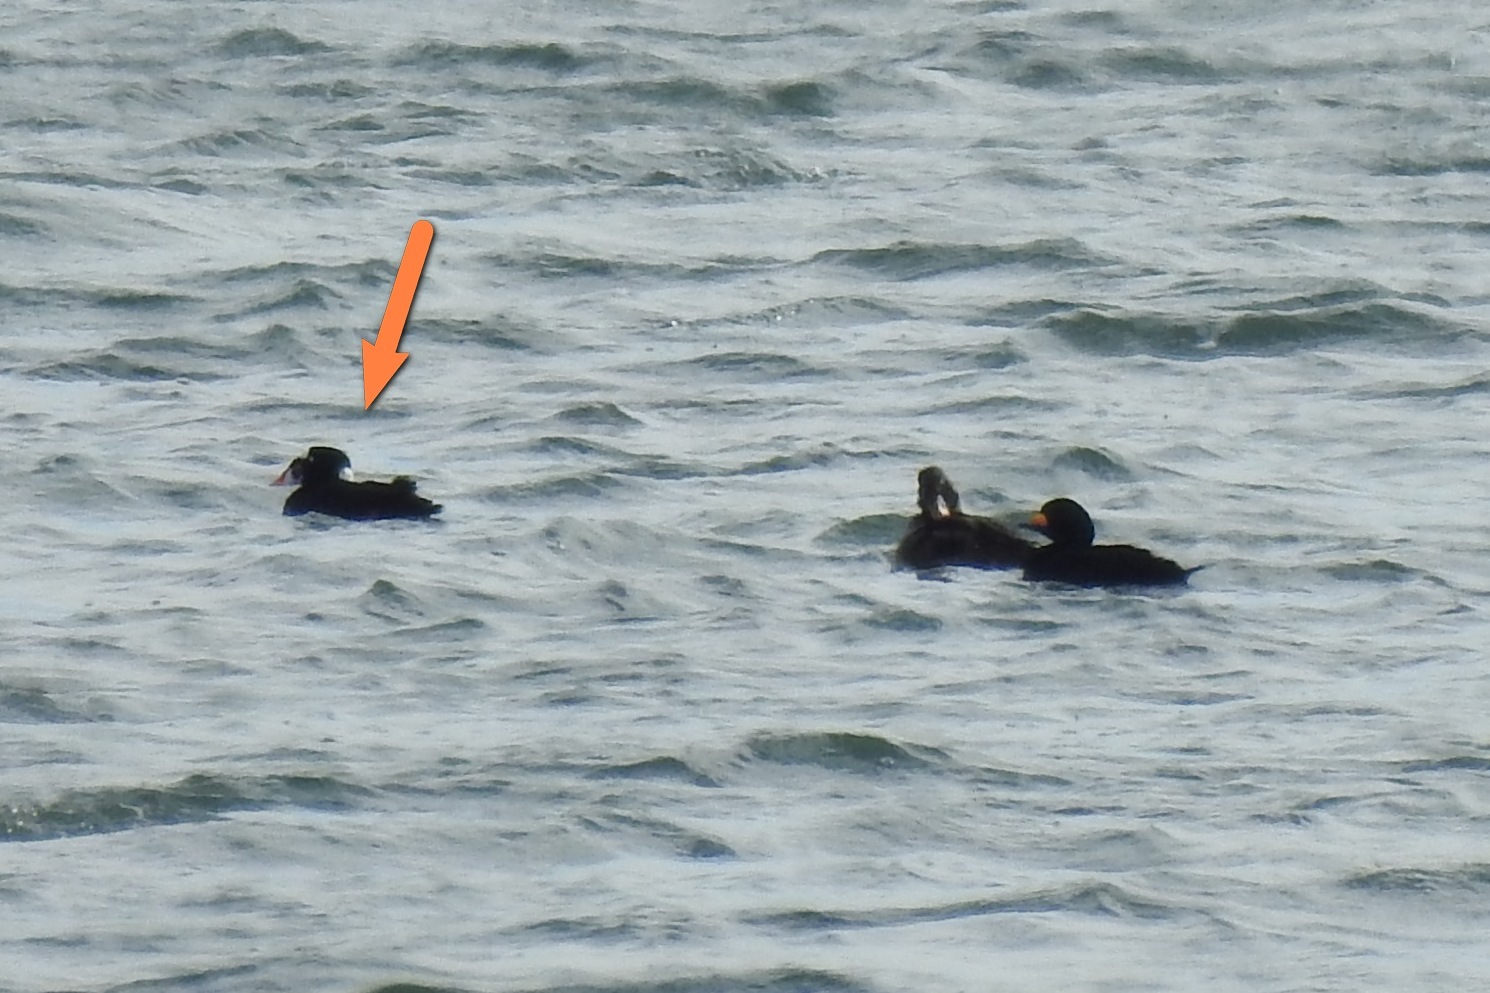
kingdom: Animalia
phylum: Chordata
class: Aves
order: Anseriformes
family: Anatidae
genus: Melanitta
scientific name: Melanitta perspicillata
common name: Surf scoter
